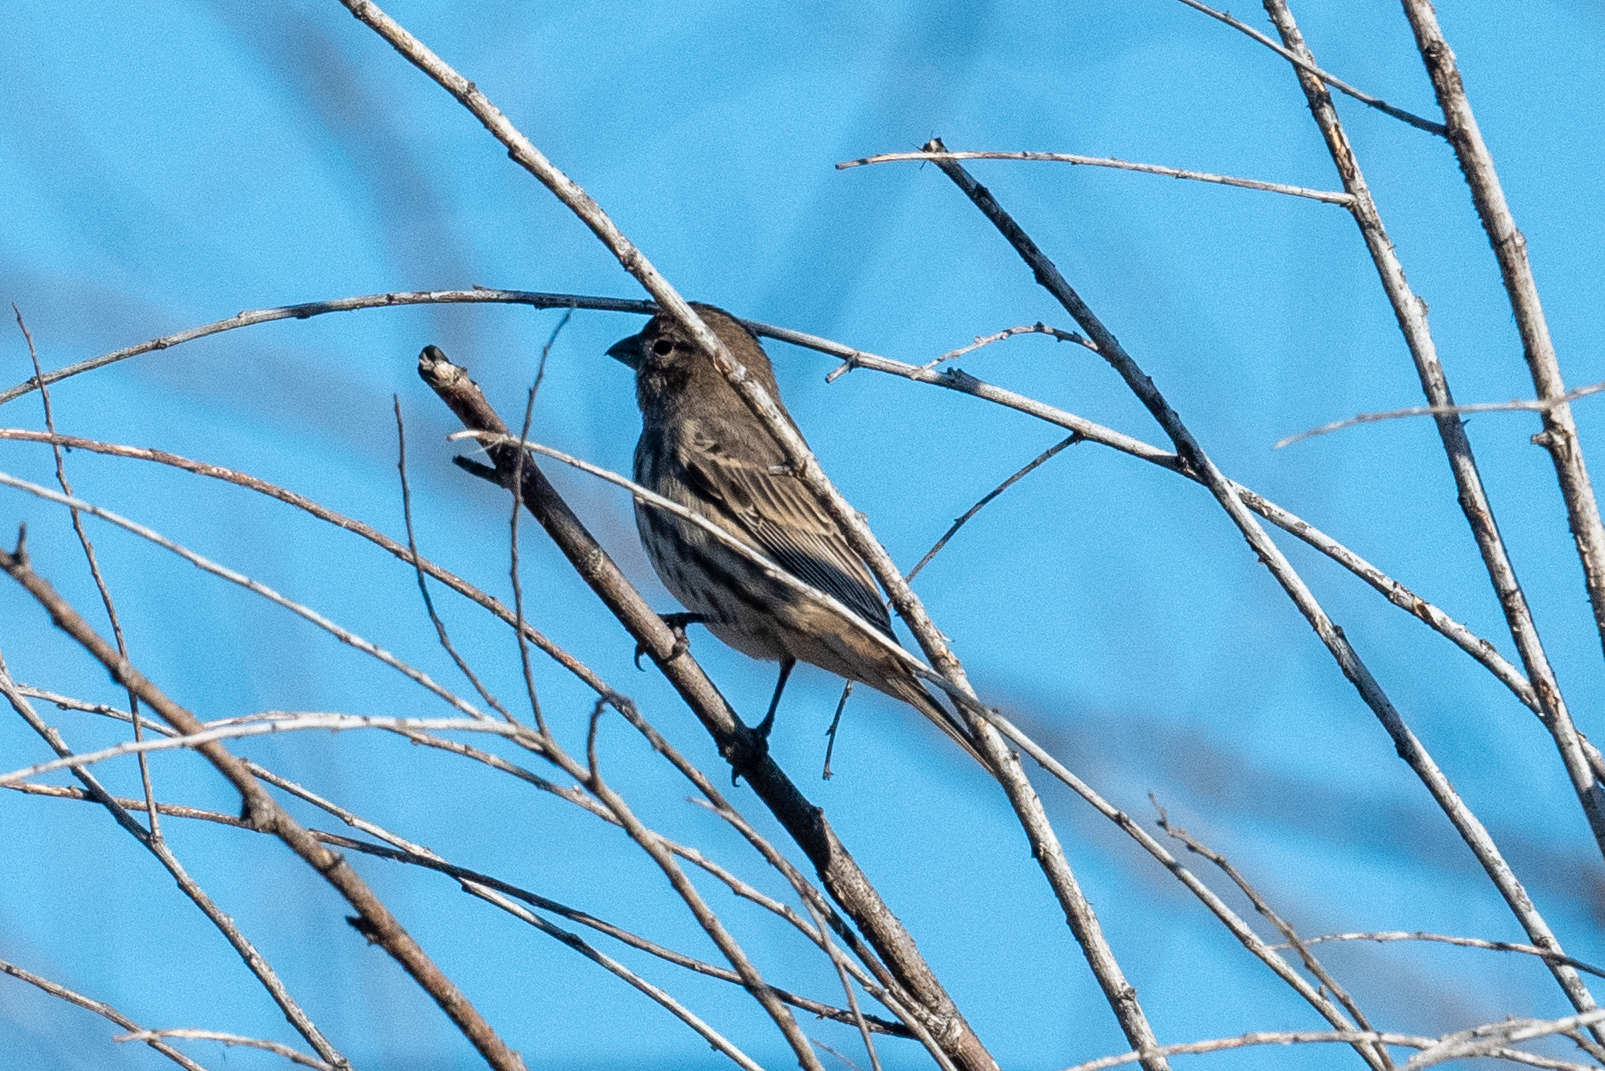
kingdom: Animalia
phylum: Chordata
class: Aves
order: Passeriformes
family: Fringillidae
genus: Haemorhous
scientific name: Haemorhous mexicanus
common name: House finch
